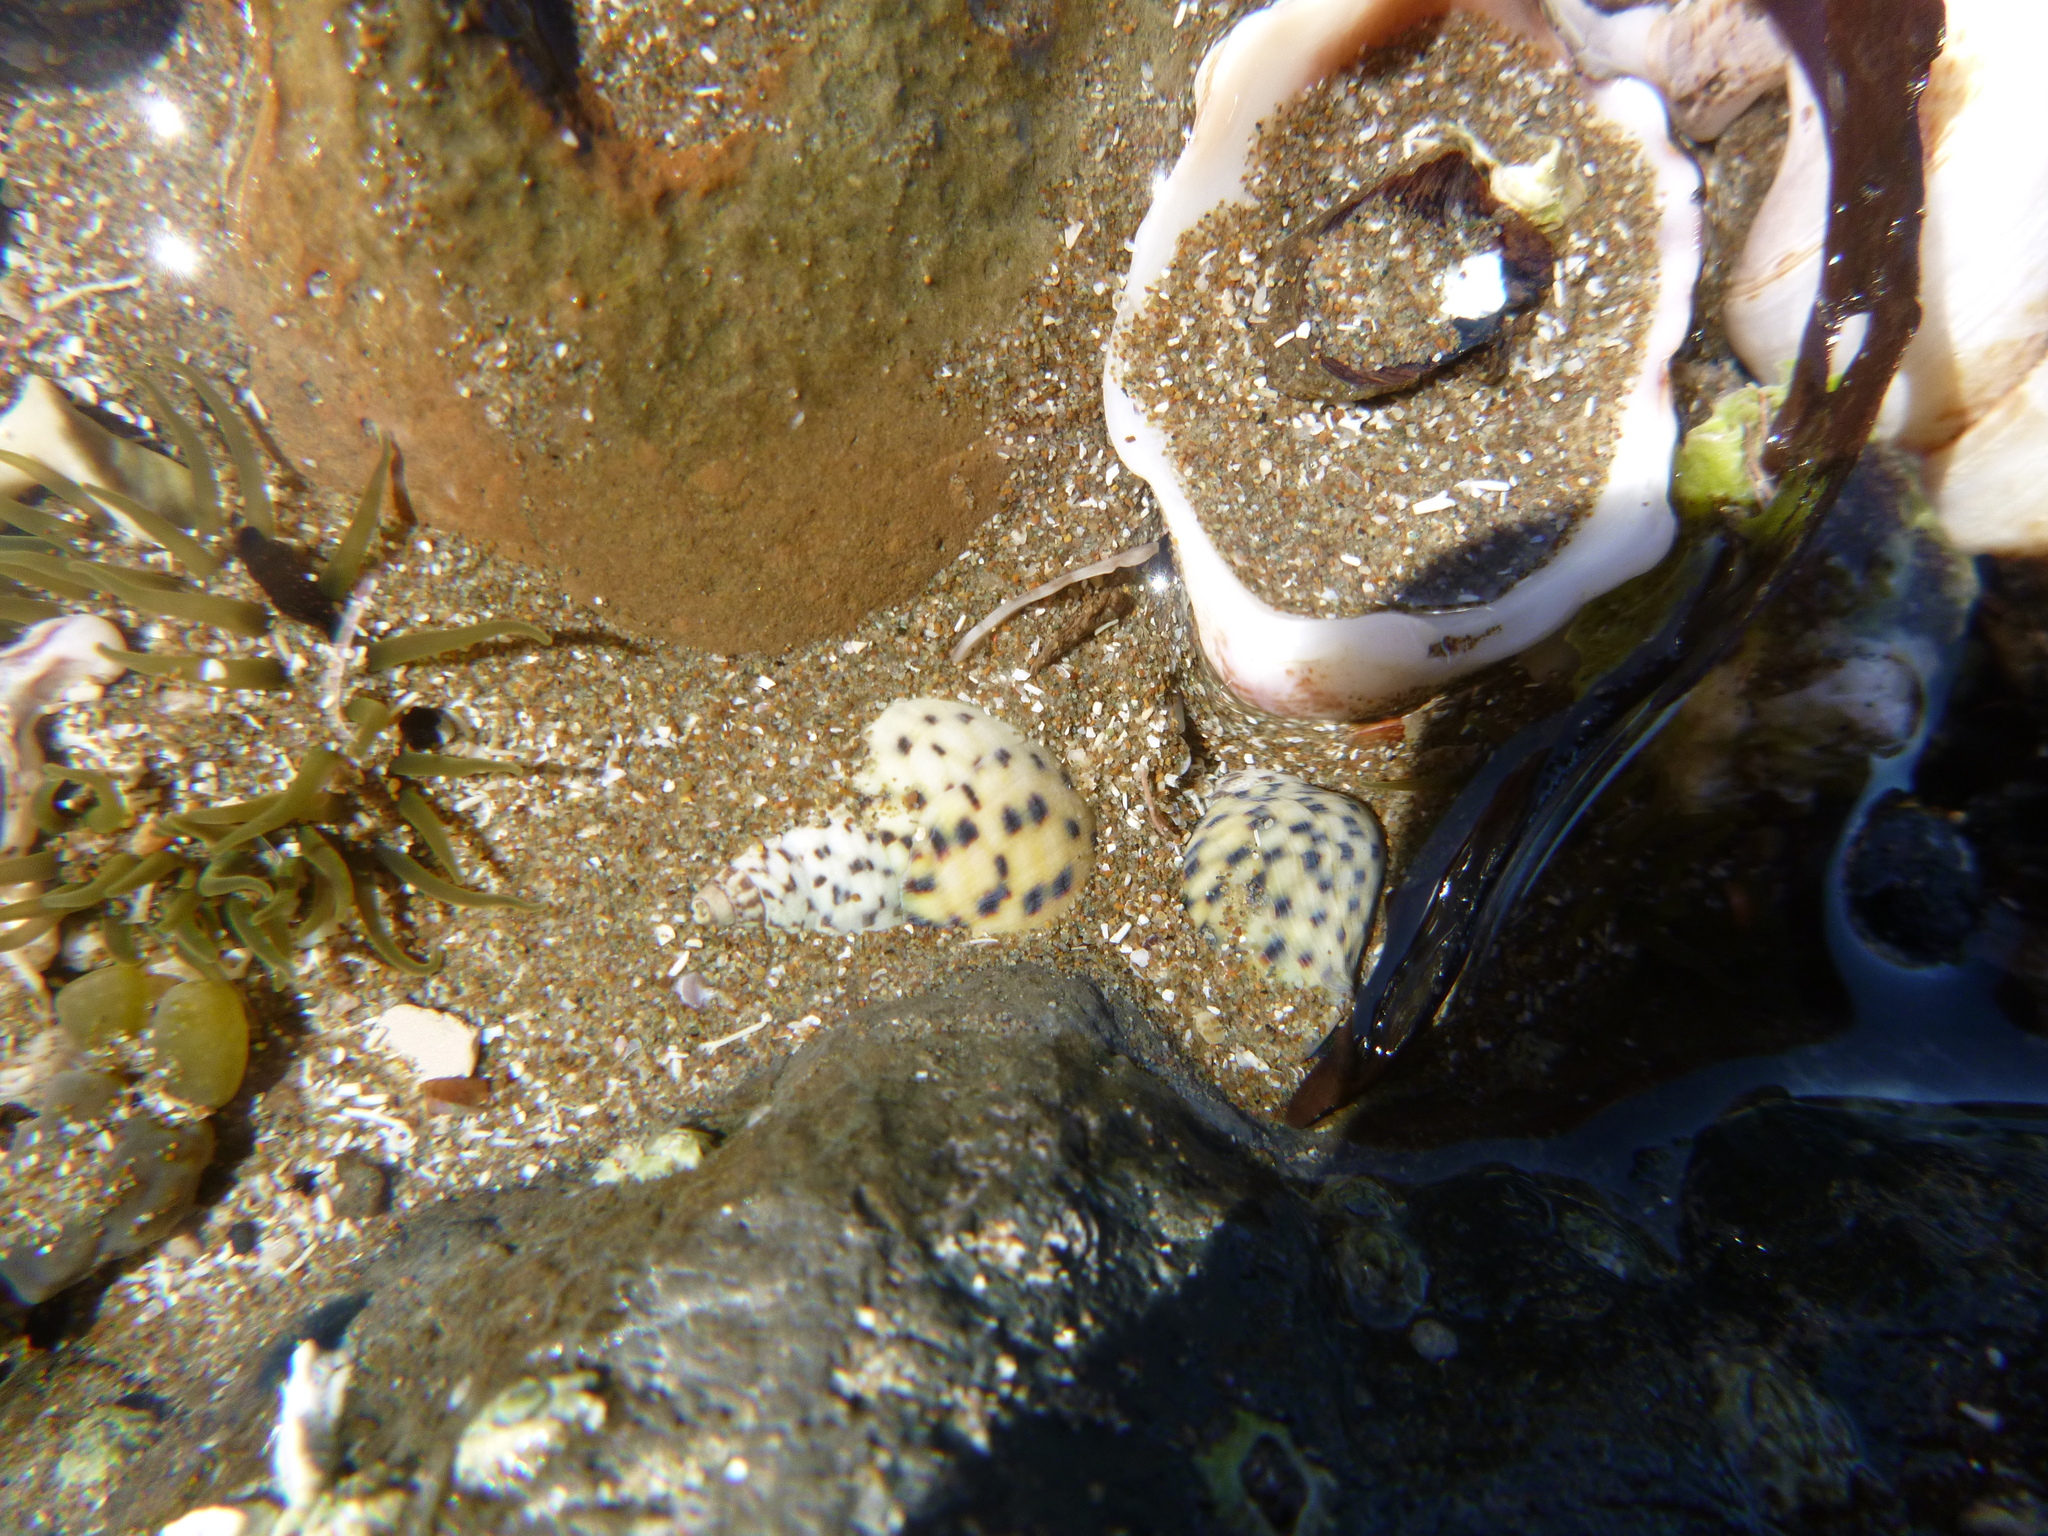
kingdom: Animalia
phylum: Mollusca
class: Gastropoda
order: Neogastropoda
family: Cominellidae
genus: Cominella
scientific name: Cominella maculosa
